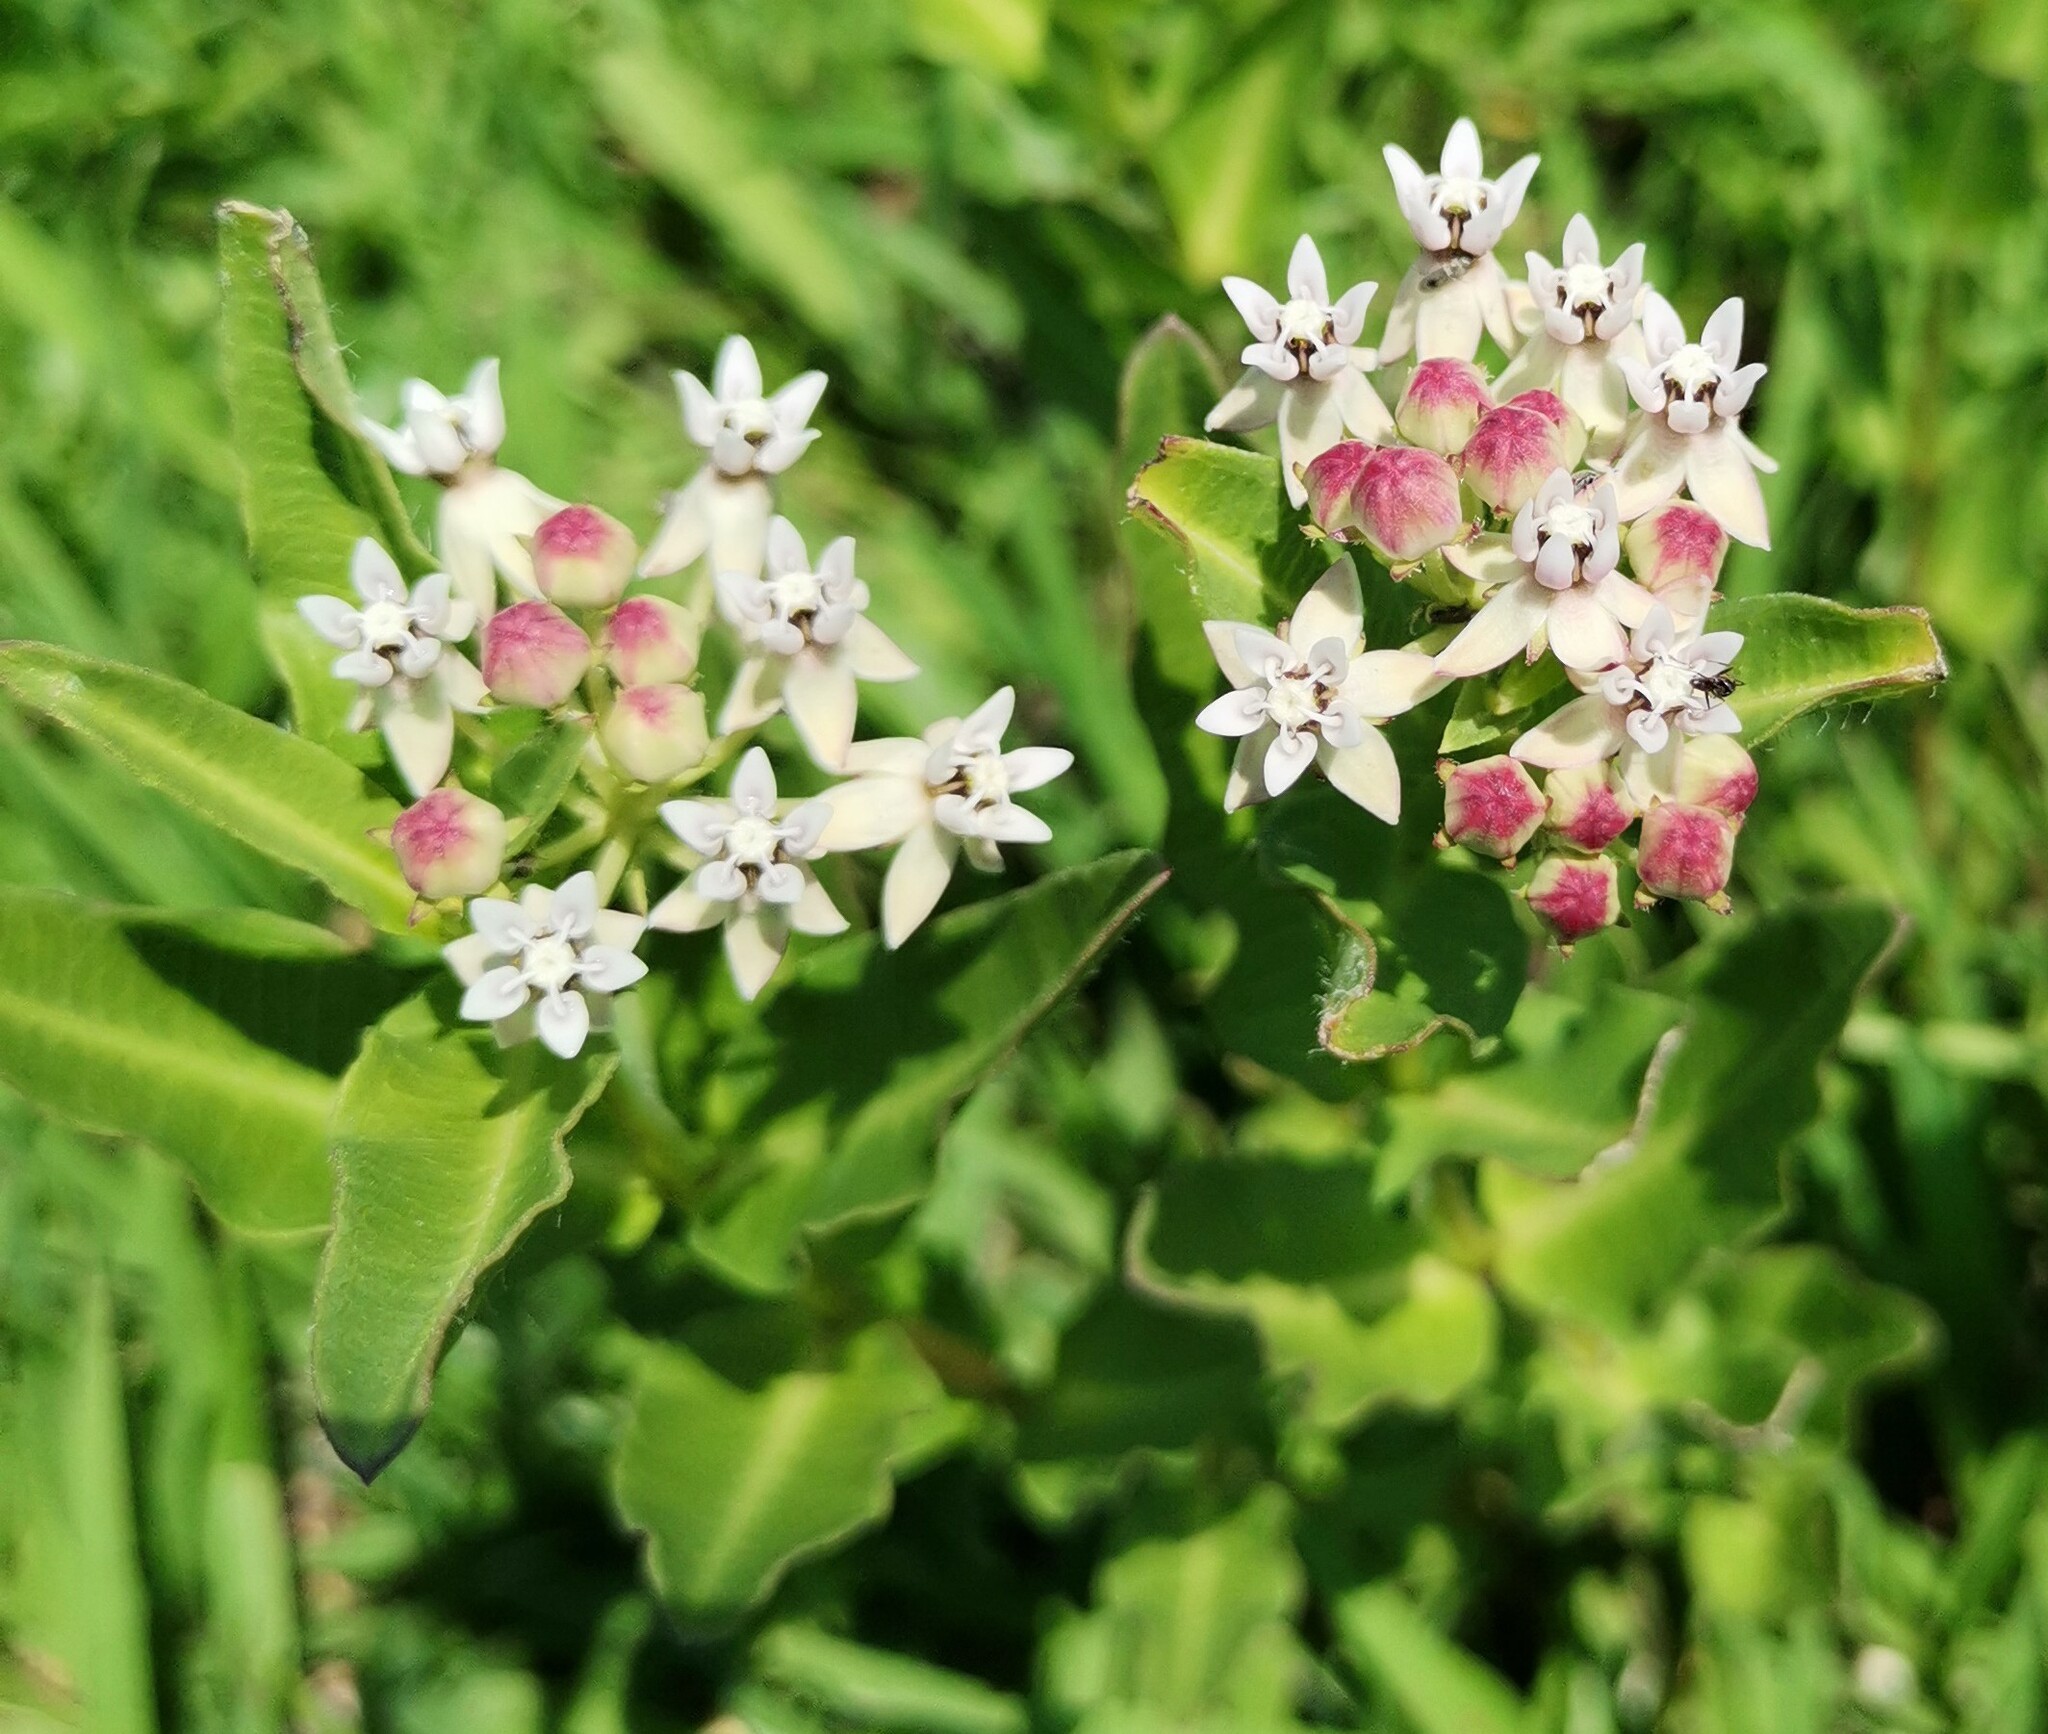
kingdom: Plantae
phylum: Tracheophyta
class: Magnoliopsida
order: Gentianales
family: Apocynaceae
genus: Asclepias
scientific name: Asclepias pratensis
